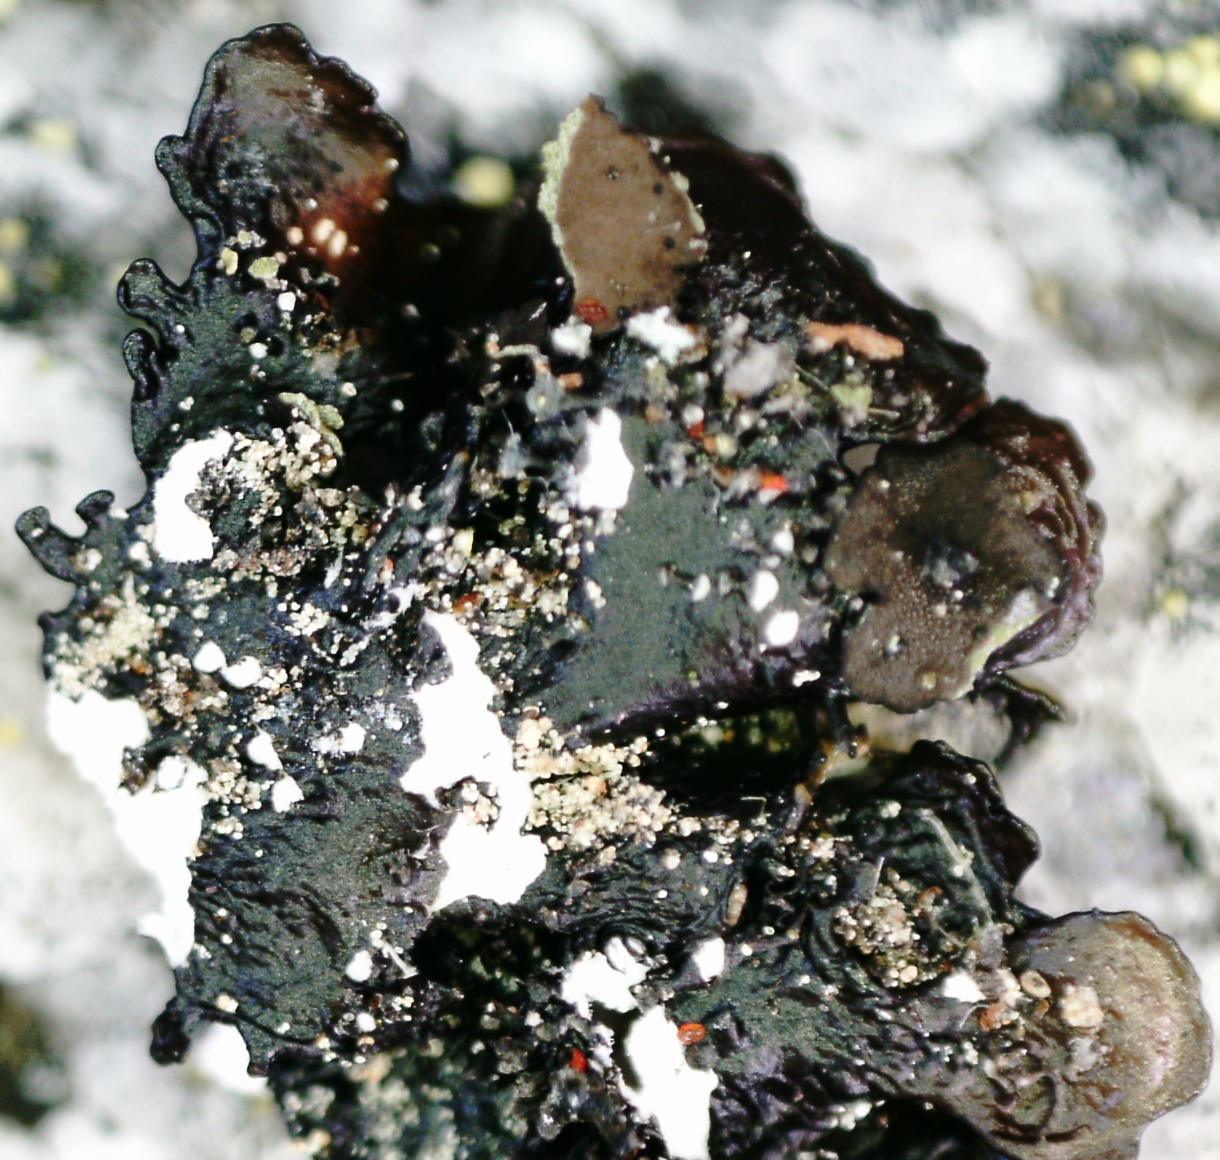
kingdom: Fungi
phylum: Ascomycota
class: Lecanoromycetes
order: Lecanorales
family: Parmeliaceae
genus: Xanthoparmelia
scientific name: Xanthoparmelia conspersa
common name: Peppered rock shield
